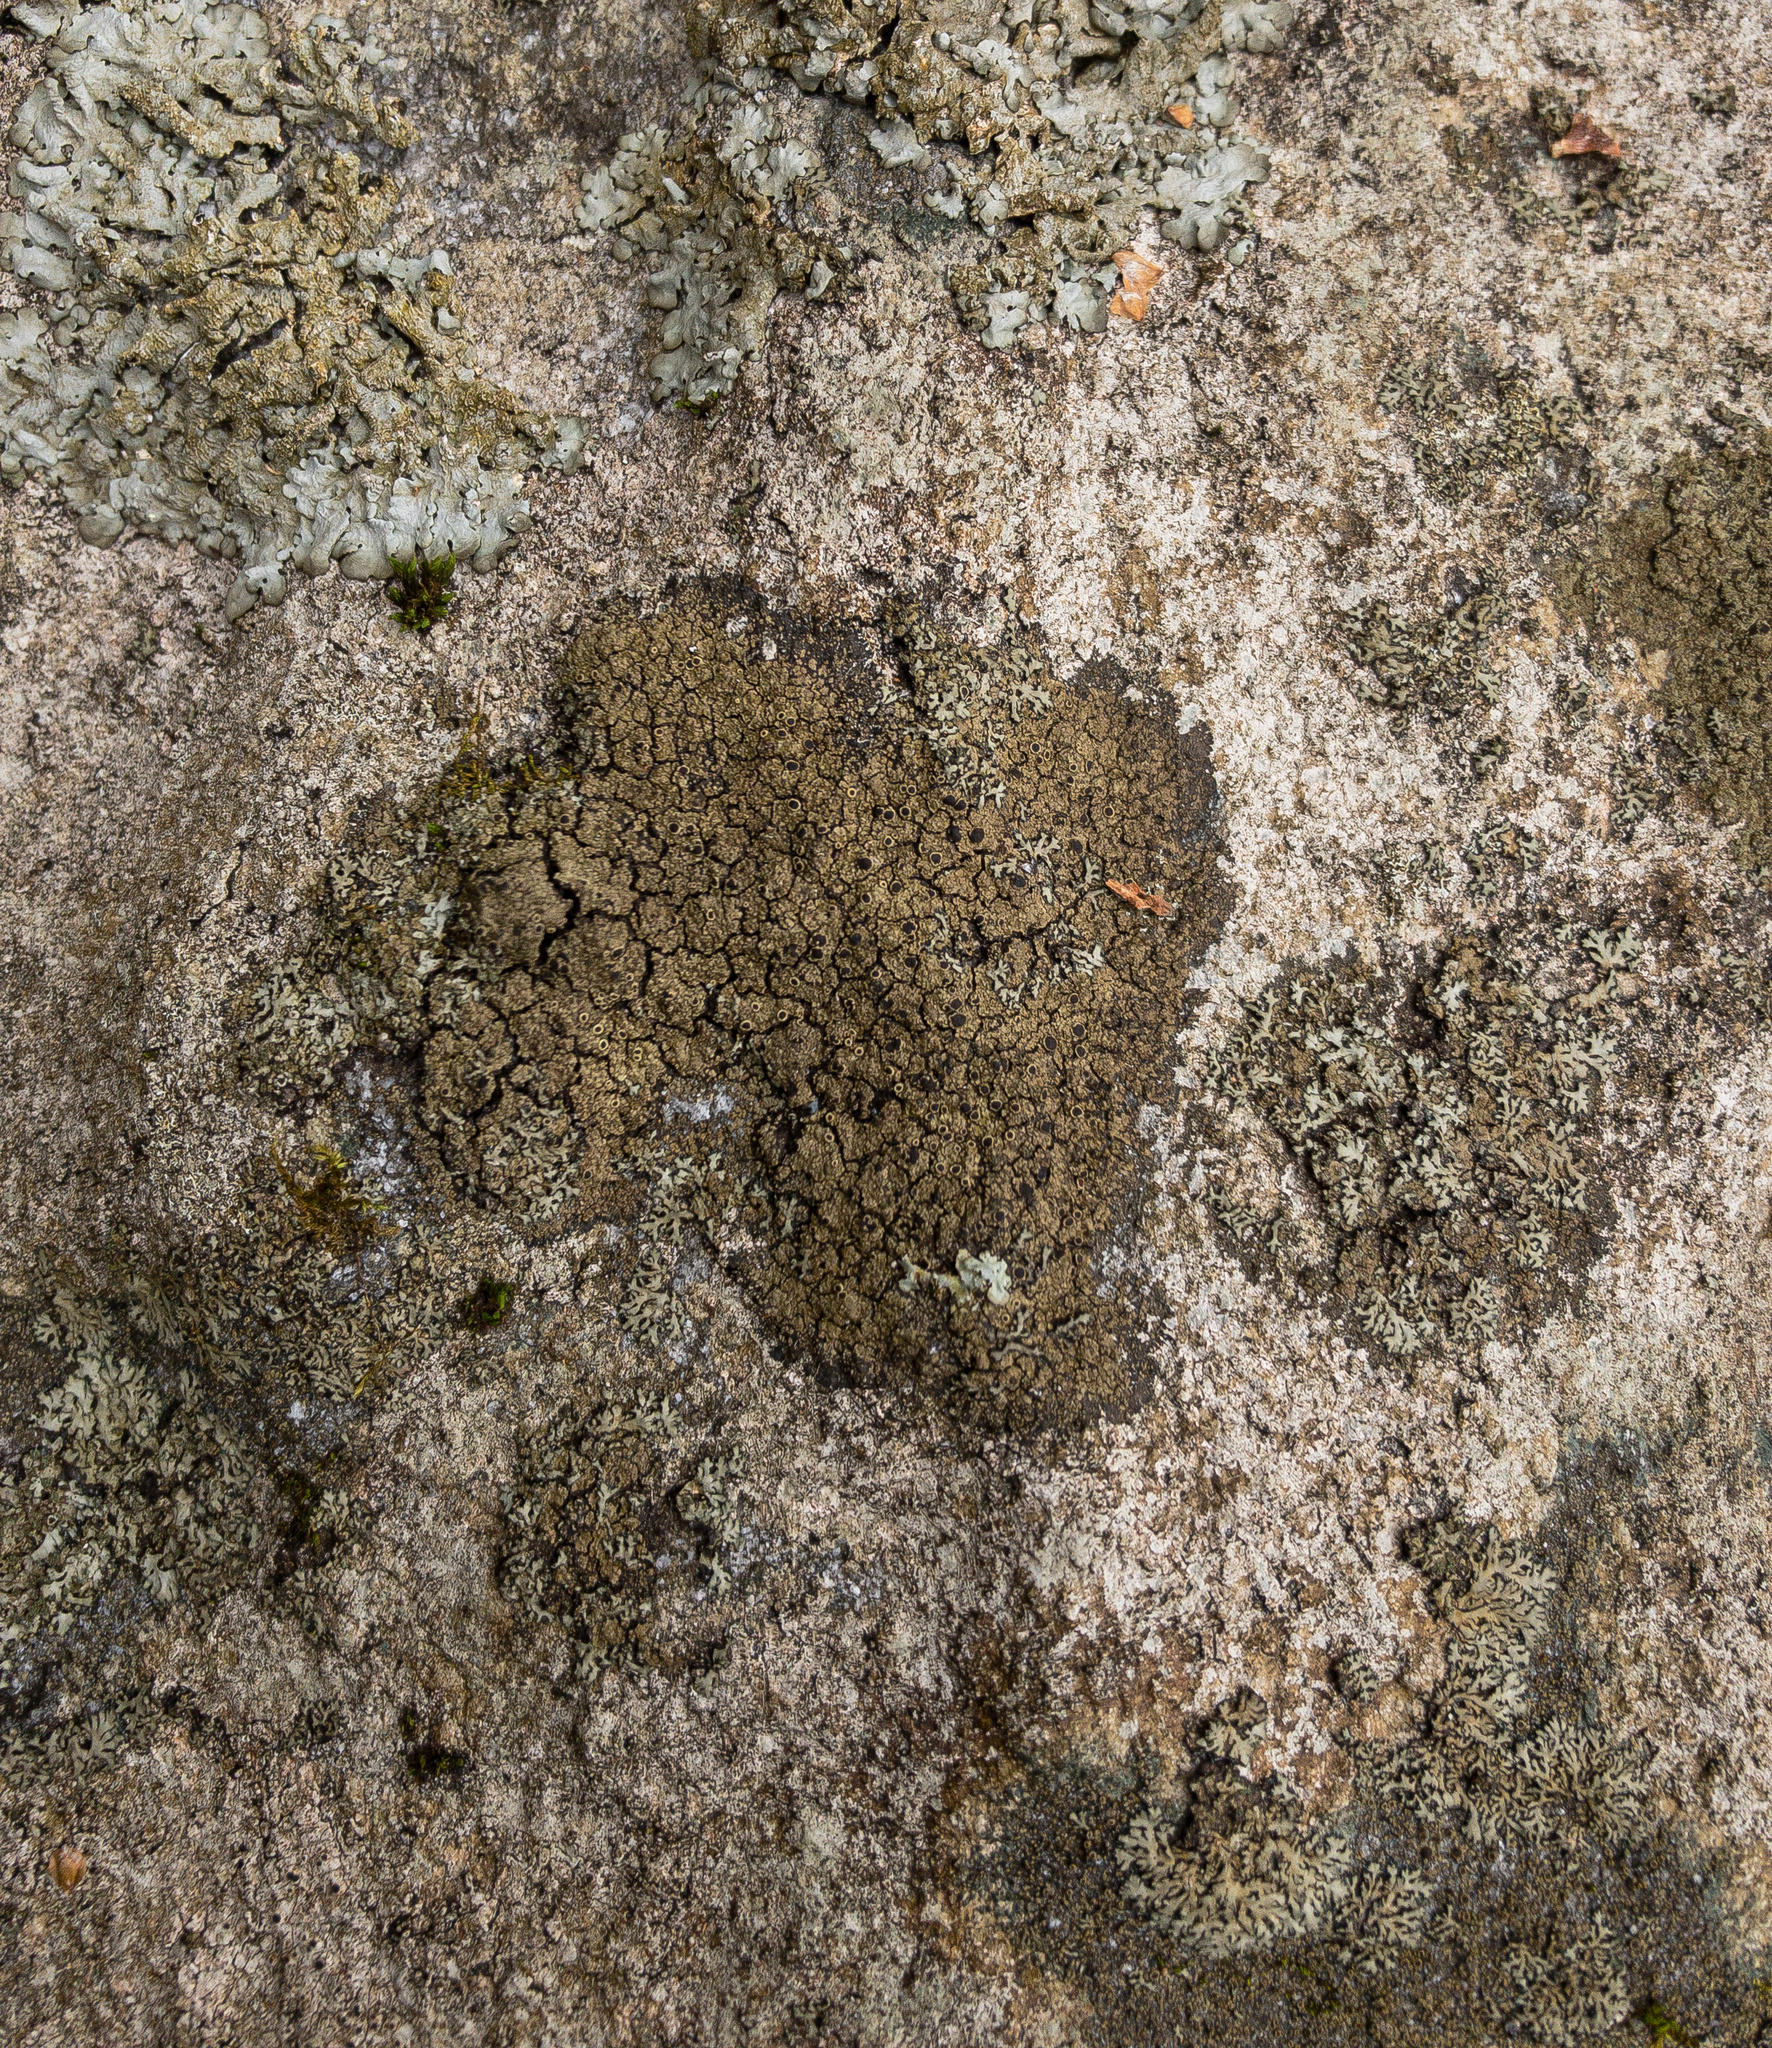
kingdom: Fungi
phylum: Ascomycota
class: Lecanoromycetes
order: Peltigerales
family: Vahliellaceae
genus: Vahliella
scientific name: Vahliella leucophaea
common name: Rock shingle lichen
